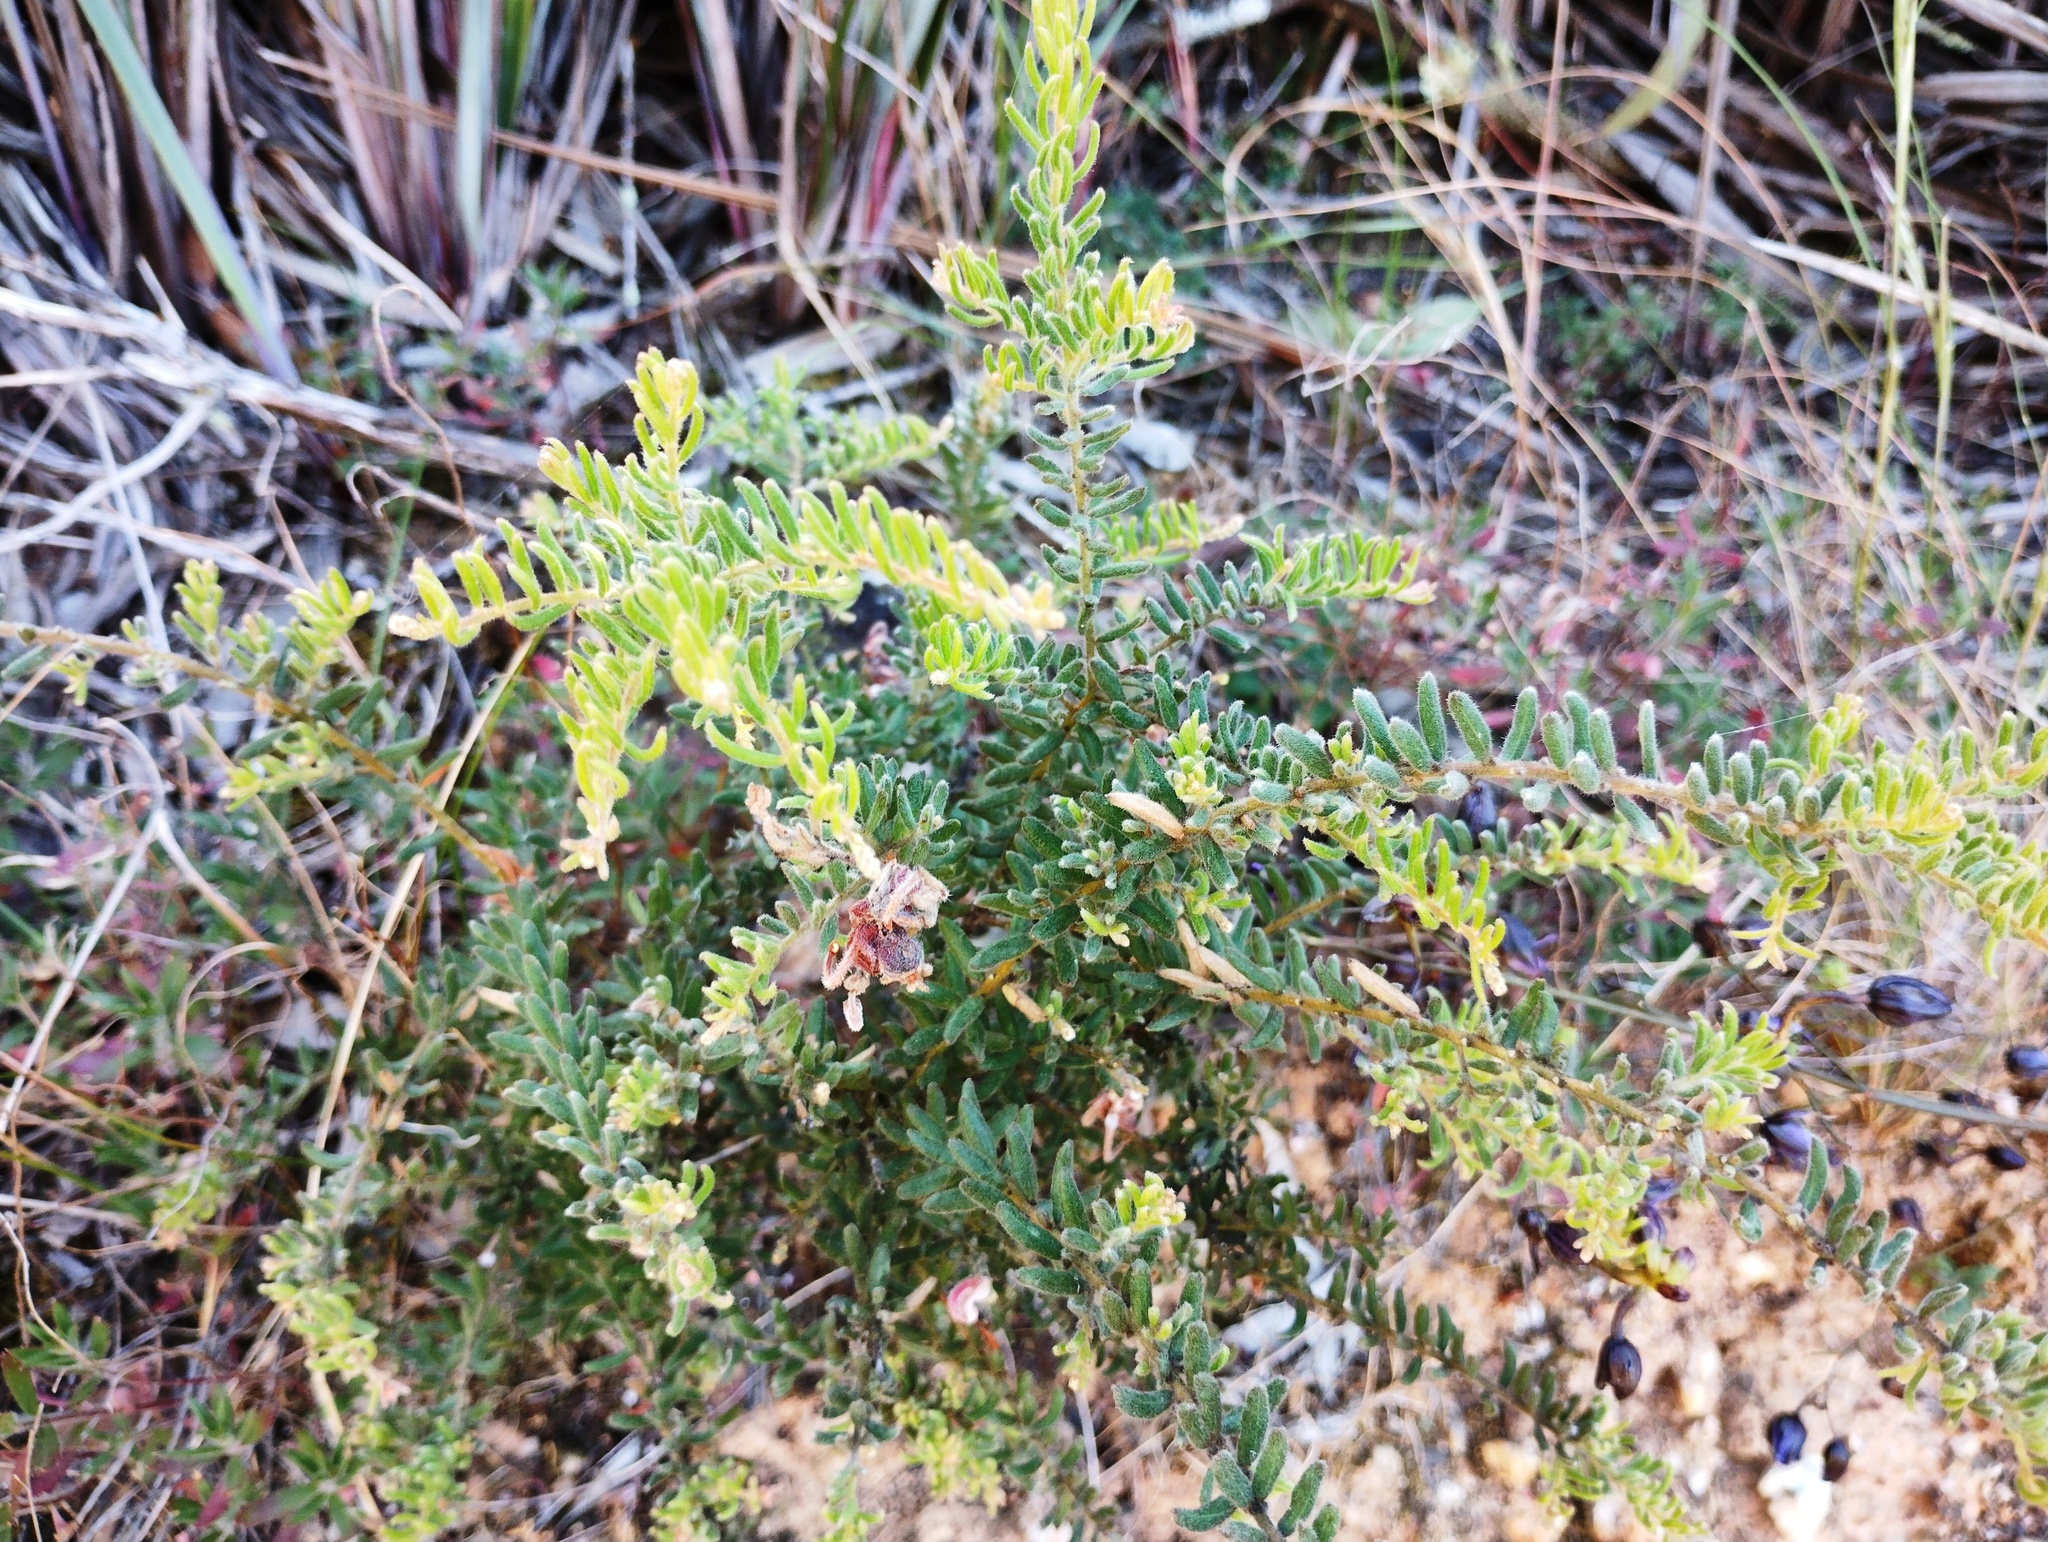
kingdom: Plantae
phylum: Tracheophyta
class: Magnoliopsida
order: Proteales
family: Proteaceae
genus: Grevillea
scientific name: Grevillea alpina
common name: Catclaws grevillea
